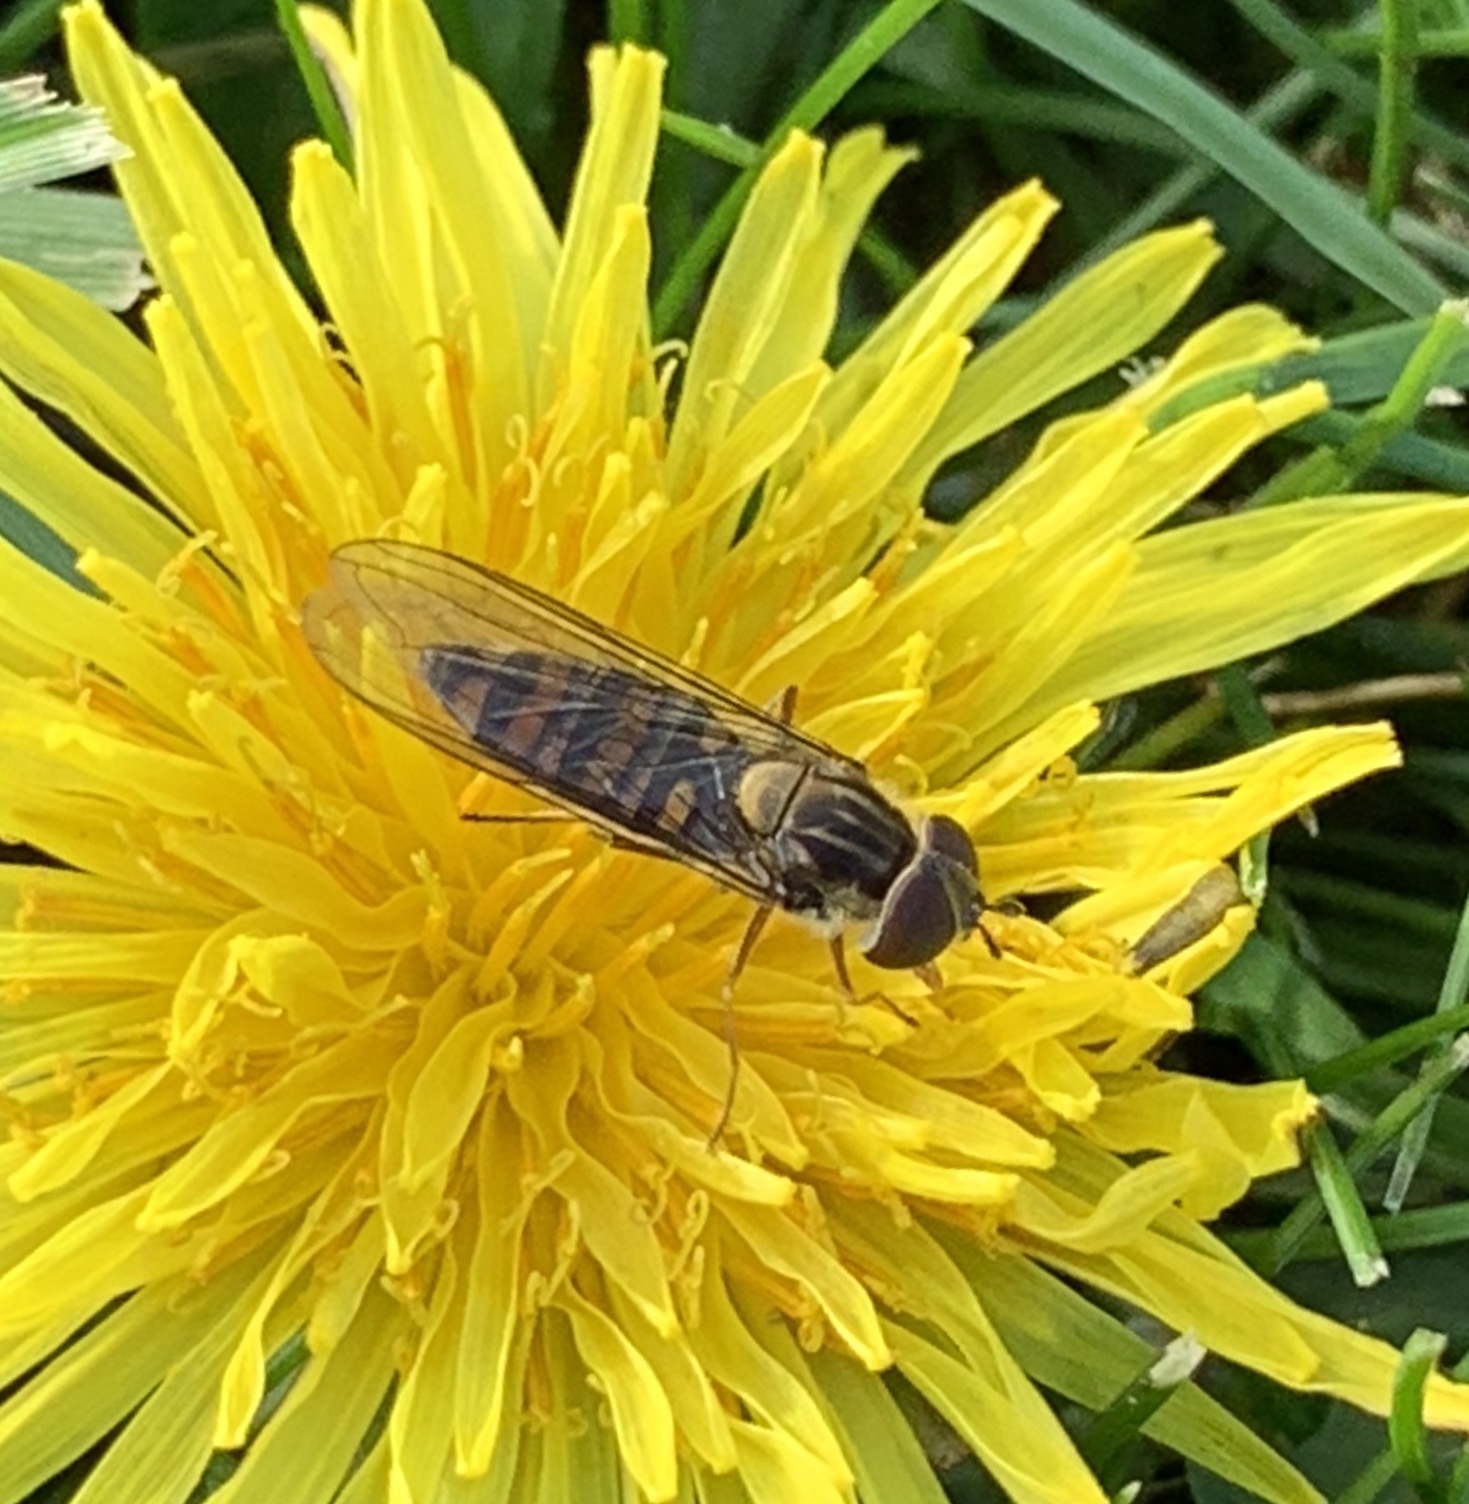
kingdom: Animalia
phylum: Arthropoda
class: Insecta
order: Diptera
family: Syrphidae
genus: Episyrphus
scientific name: Episyrphus balteatus
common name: Marmalade hoverfly
